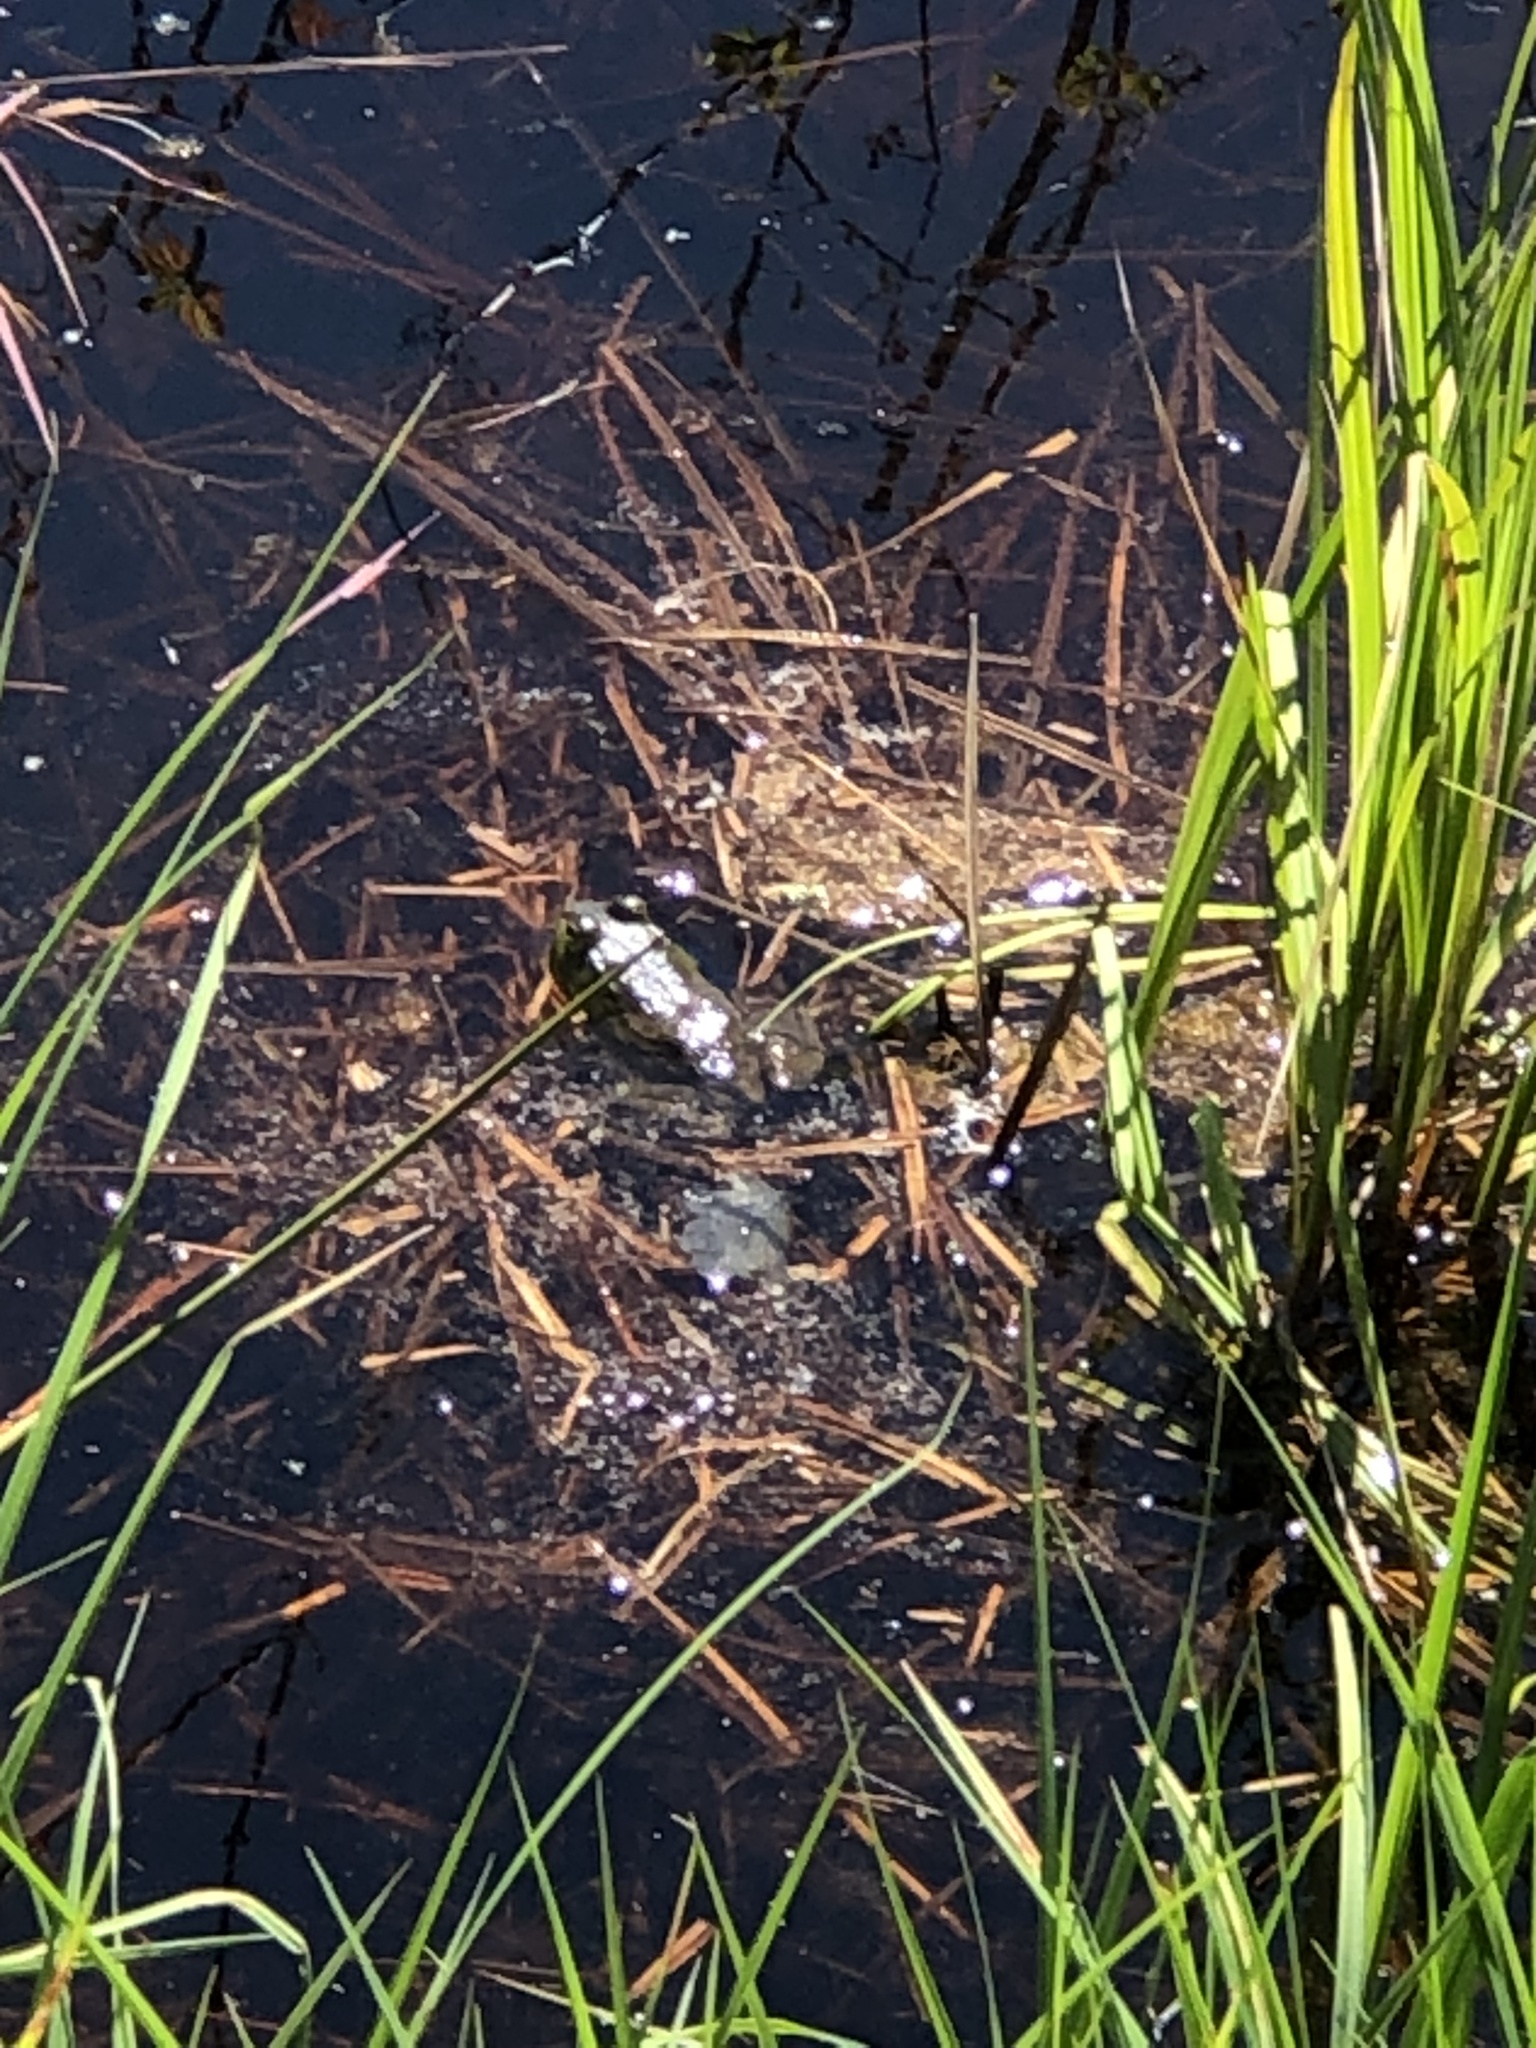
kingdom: Animalia
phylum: Chordata
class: Amphibia
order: Anura
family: Ranidae
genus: Lithobates
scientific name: Lithobates catesbeianus
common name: American bullfrog
